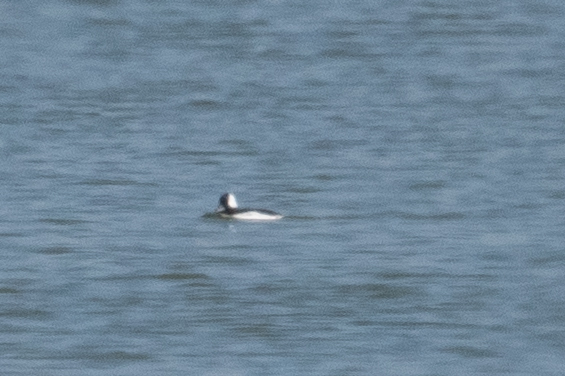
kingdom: Animalia
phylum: Chordata
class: Aves
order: Anseriformes
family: Anatidae
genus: Bucephala
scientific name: Bucephala albeola
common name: Bufflehead
